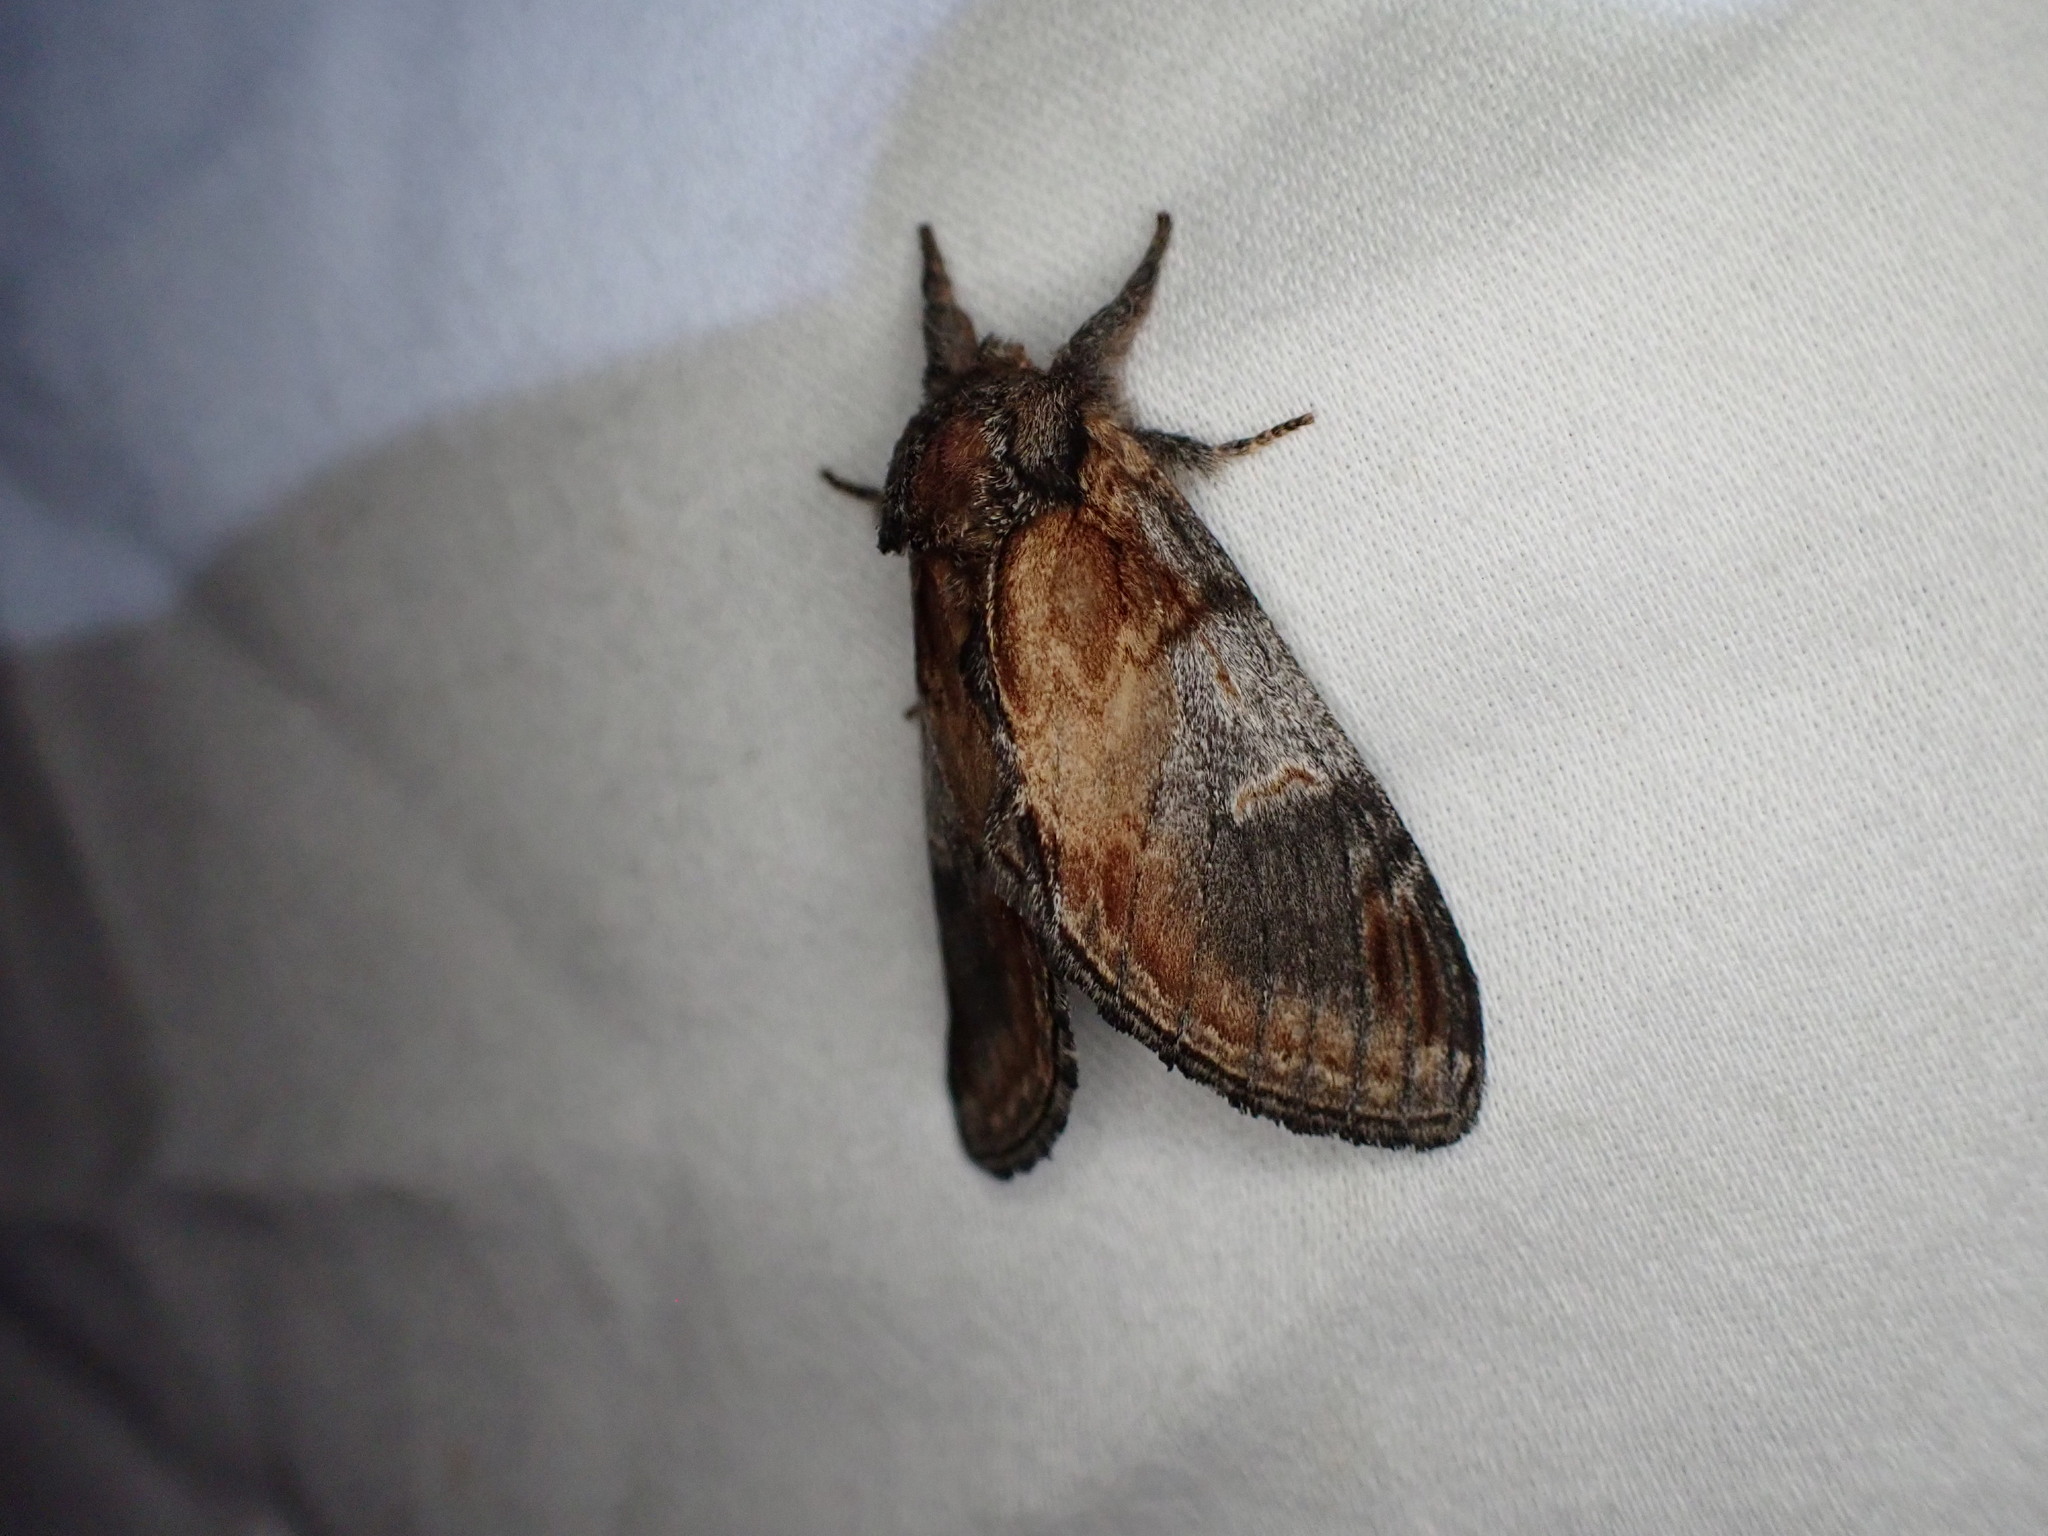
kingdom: Animalia
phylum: Arthropoda
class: Insecta
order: Lepidoptera
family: Notodontidae
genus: Notodonta
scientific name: Notodonta pacifica
